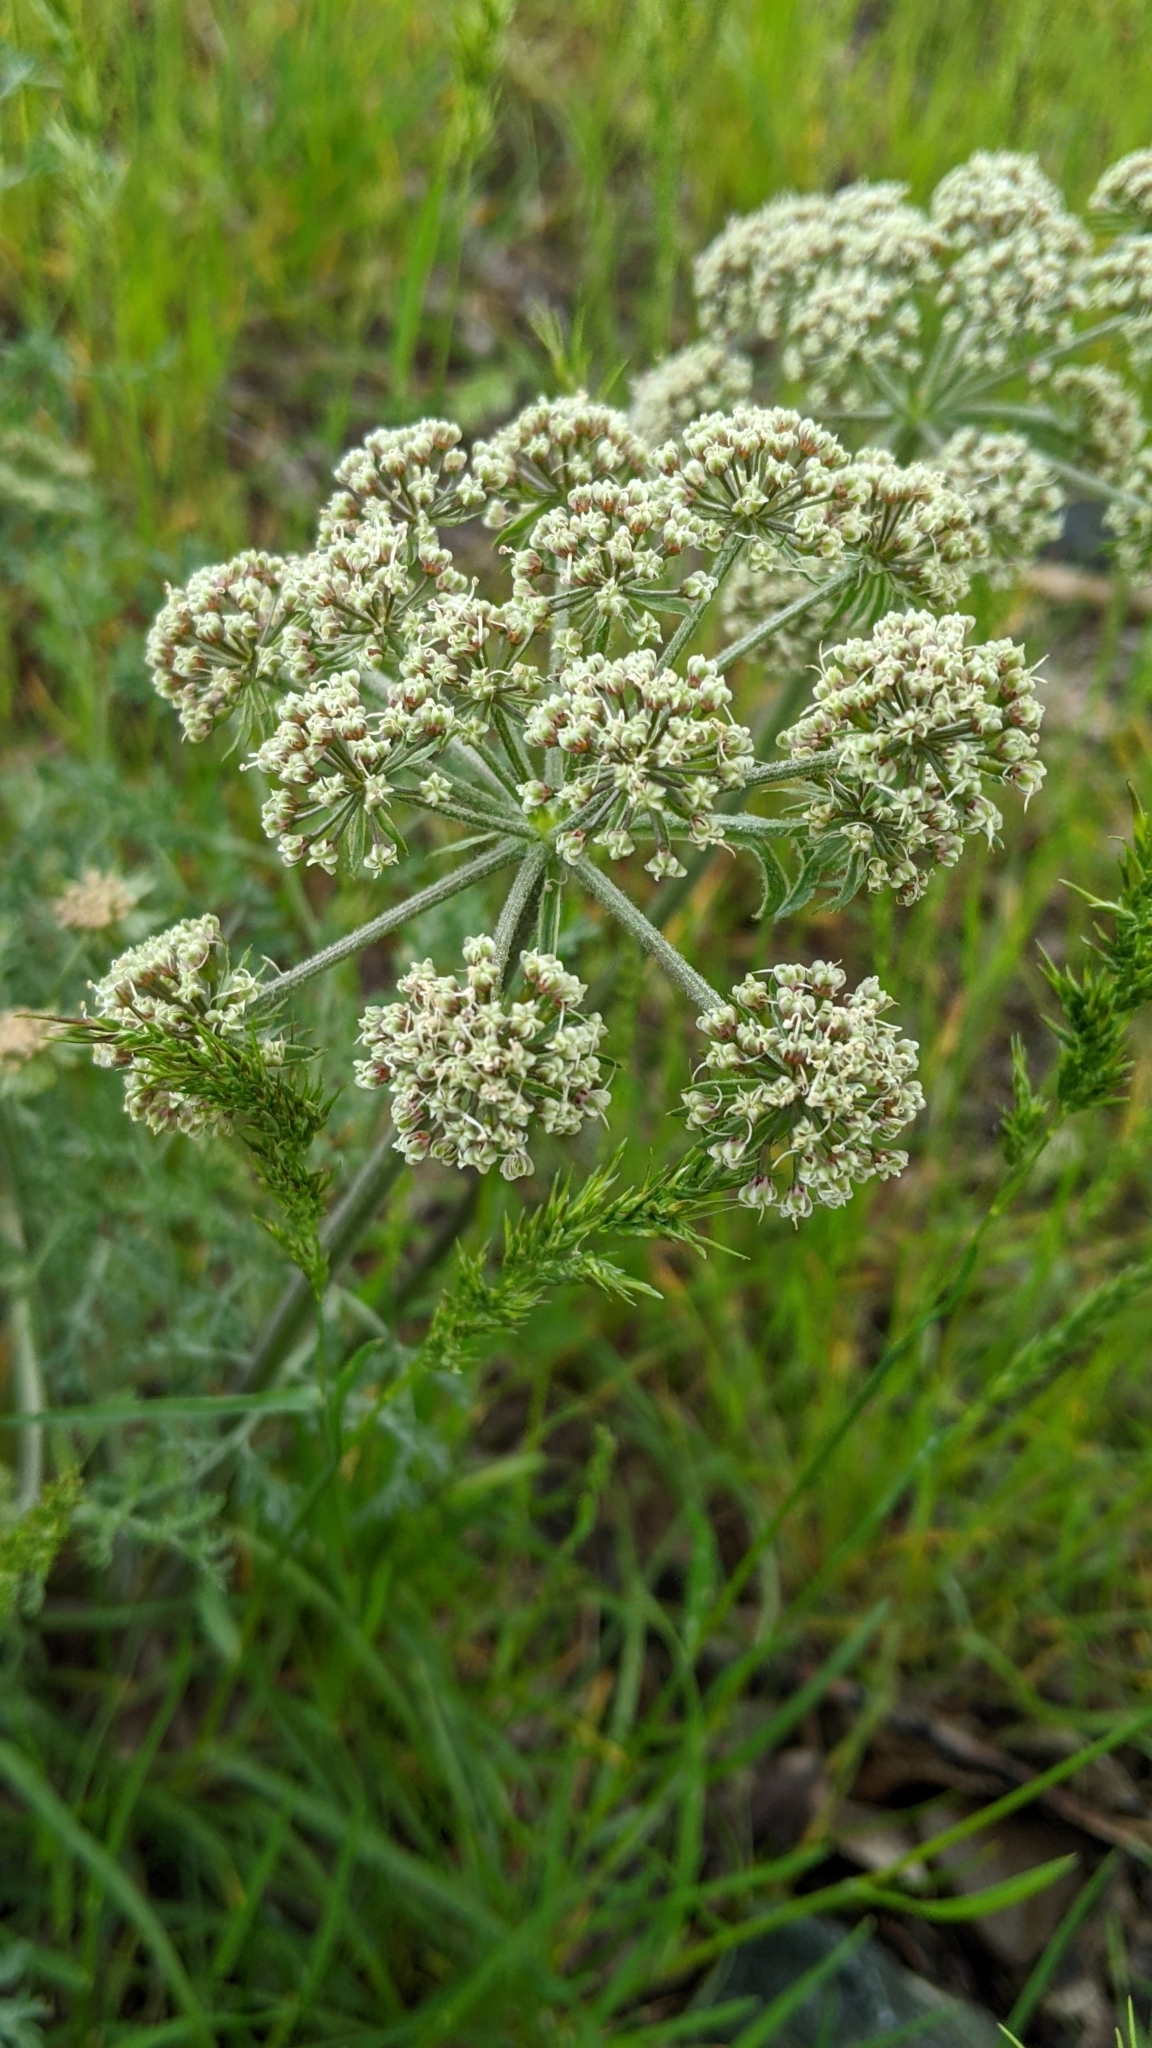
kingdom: Plantae
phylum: Tracheophyta
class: Magnoliopsida
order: Apiales
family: Apiaceae
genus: Lomatium
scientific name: Lomatium macrocarpum
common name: Big-seed biscuitroot
